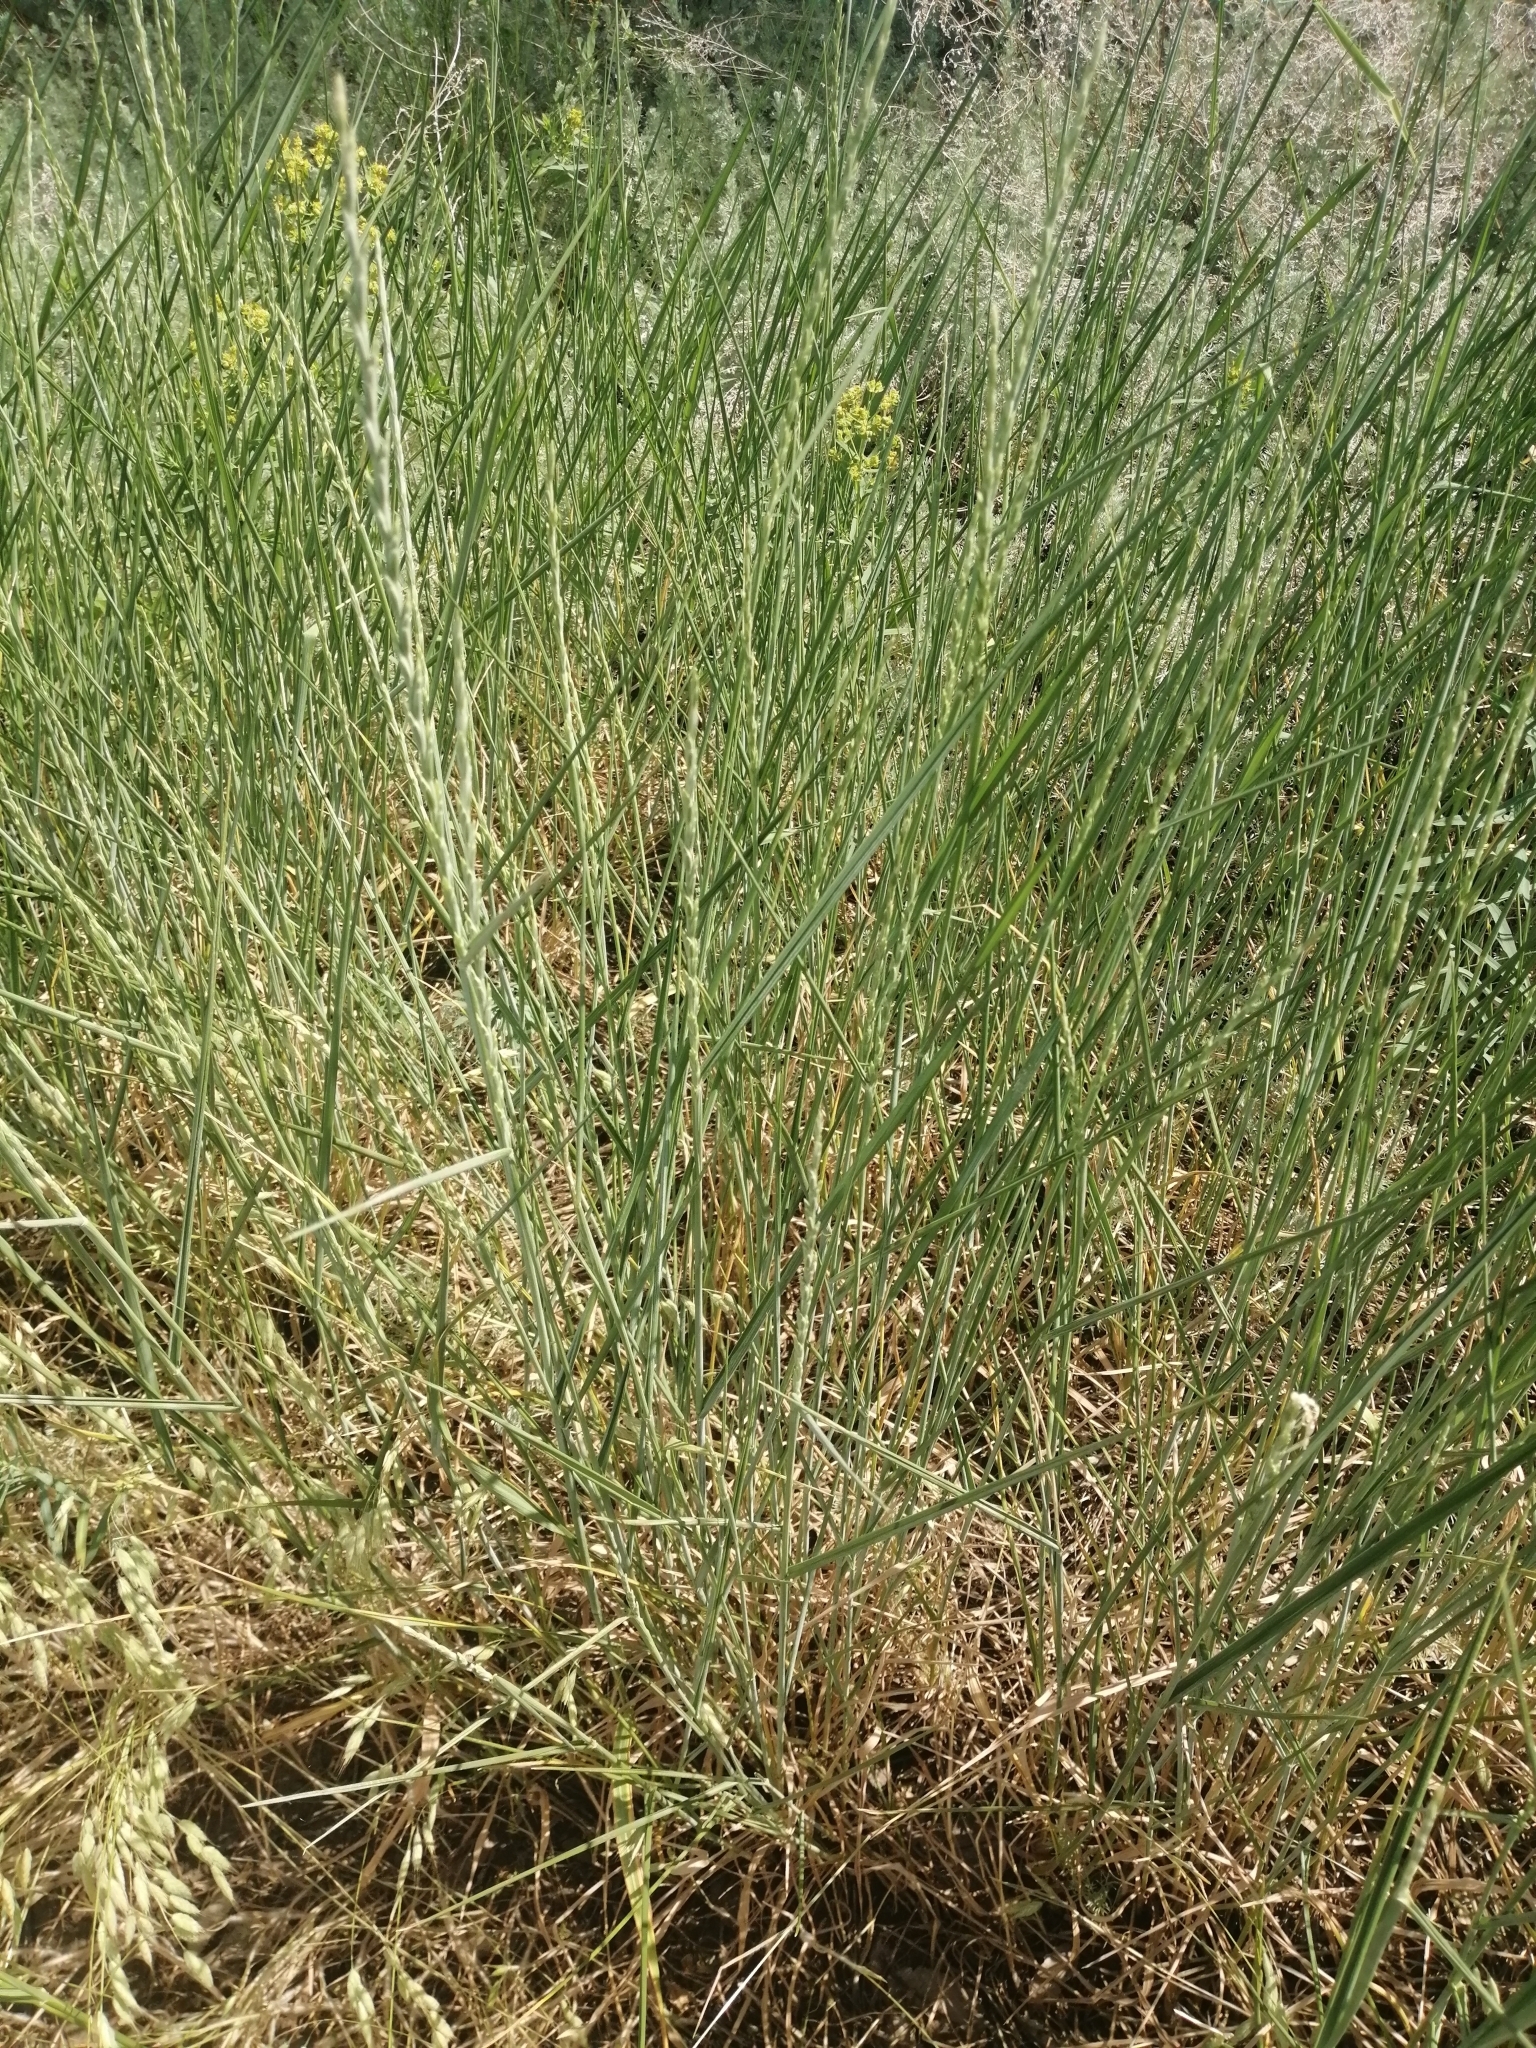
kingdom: Plantae
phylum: Tracheophyta
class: Liliopsida
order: Poales
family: Poaceae
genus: Thinopyrum
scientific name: Thinopyrum intermedium
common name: Intermediate wheatgrass
